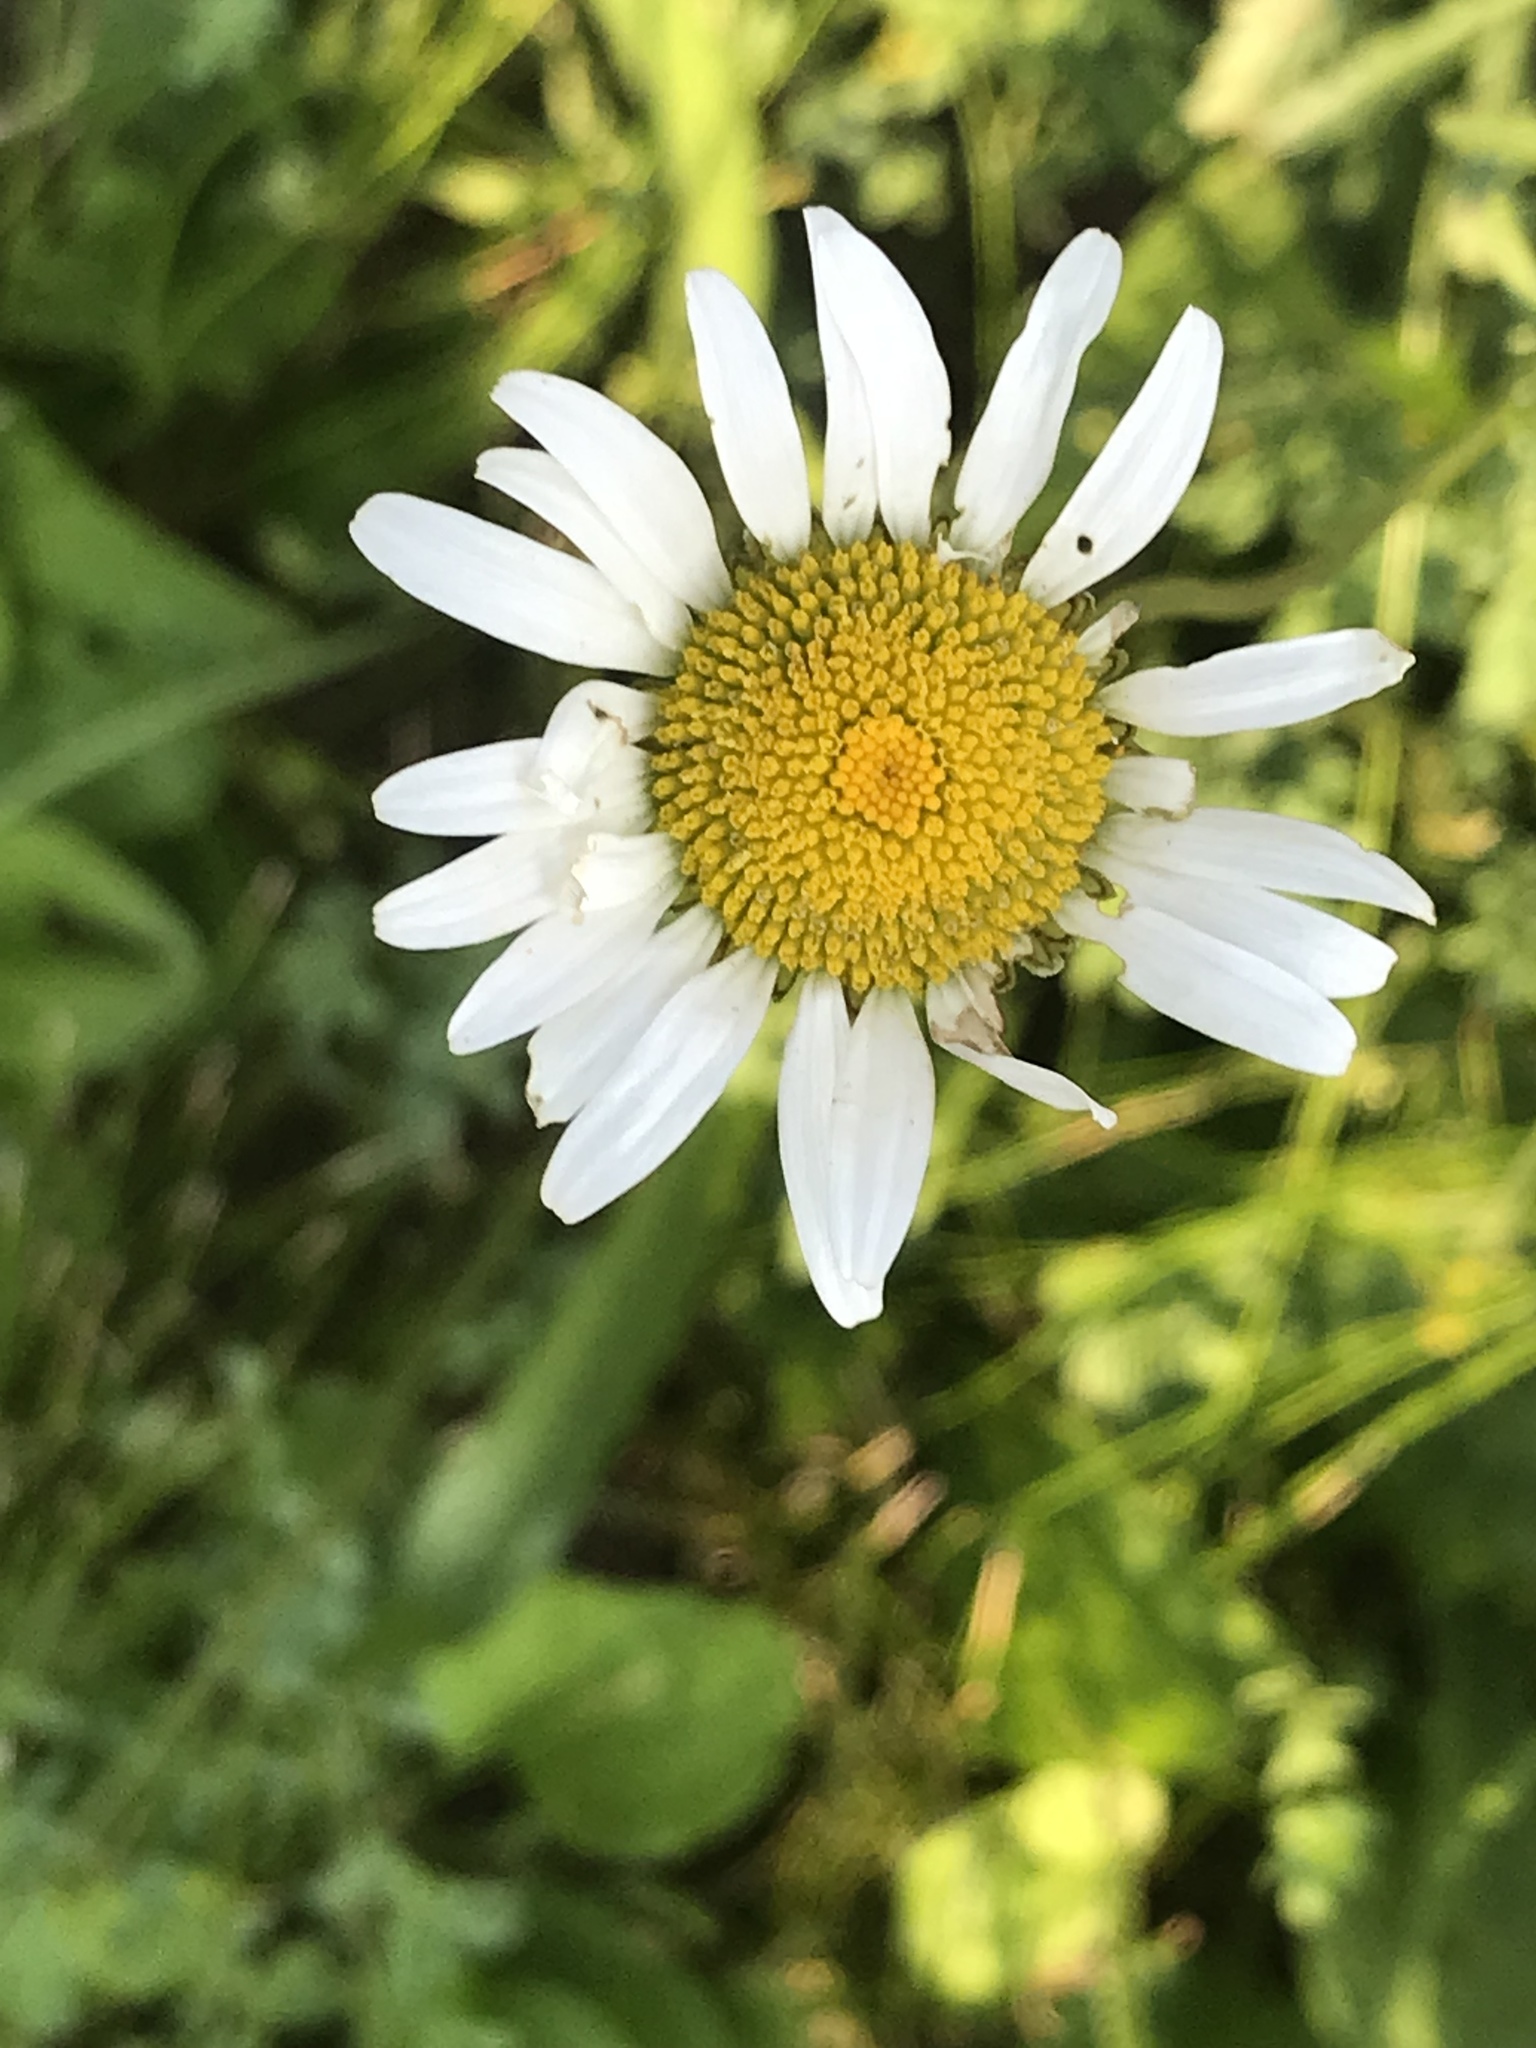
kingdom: Plantae
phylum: Tracheophyta
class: Magnoliopsida
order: Asterales
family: Asteraceae
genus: Leucanthemum
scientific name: Leucanthemum vulgare
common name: Oxeye daisy
